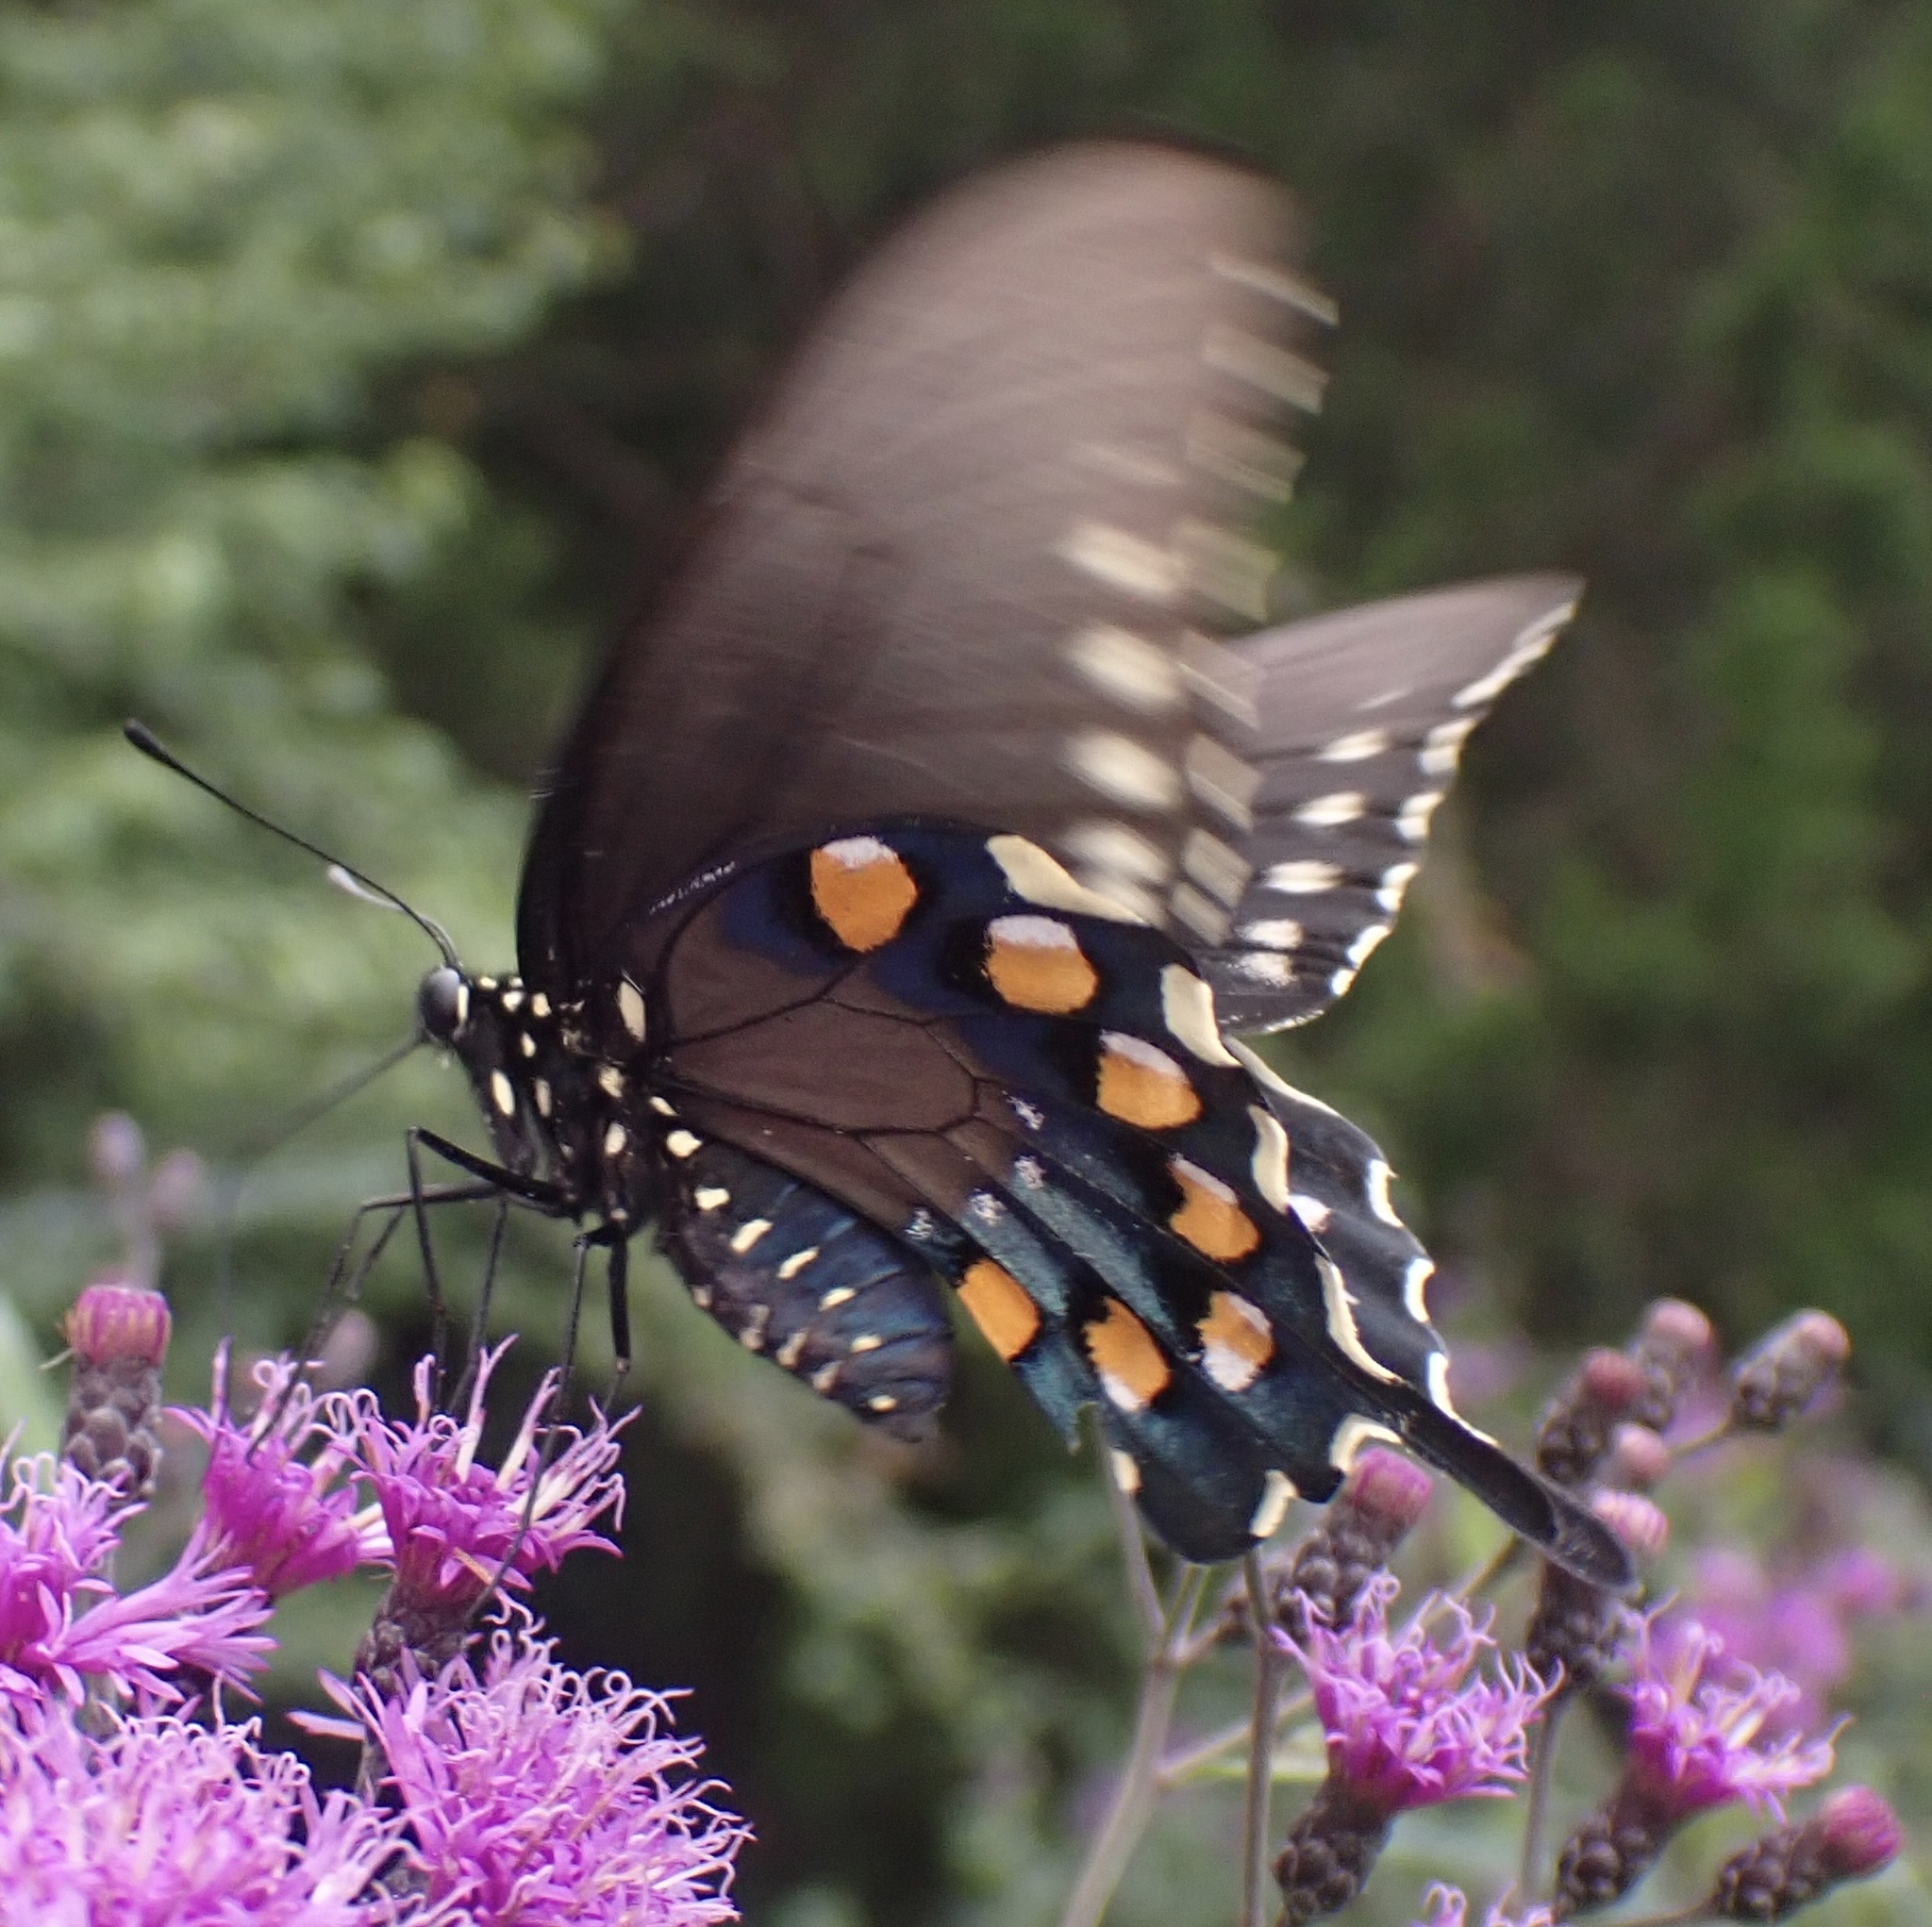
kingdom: Animalia
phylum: Arthropoda
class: Insecta
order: Lepidoptera
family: Papilionidae
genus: Battus
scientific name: Battus philenor
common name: Pipevine swallowtail
